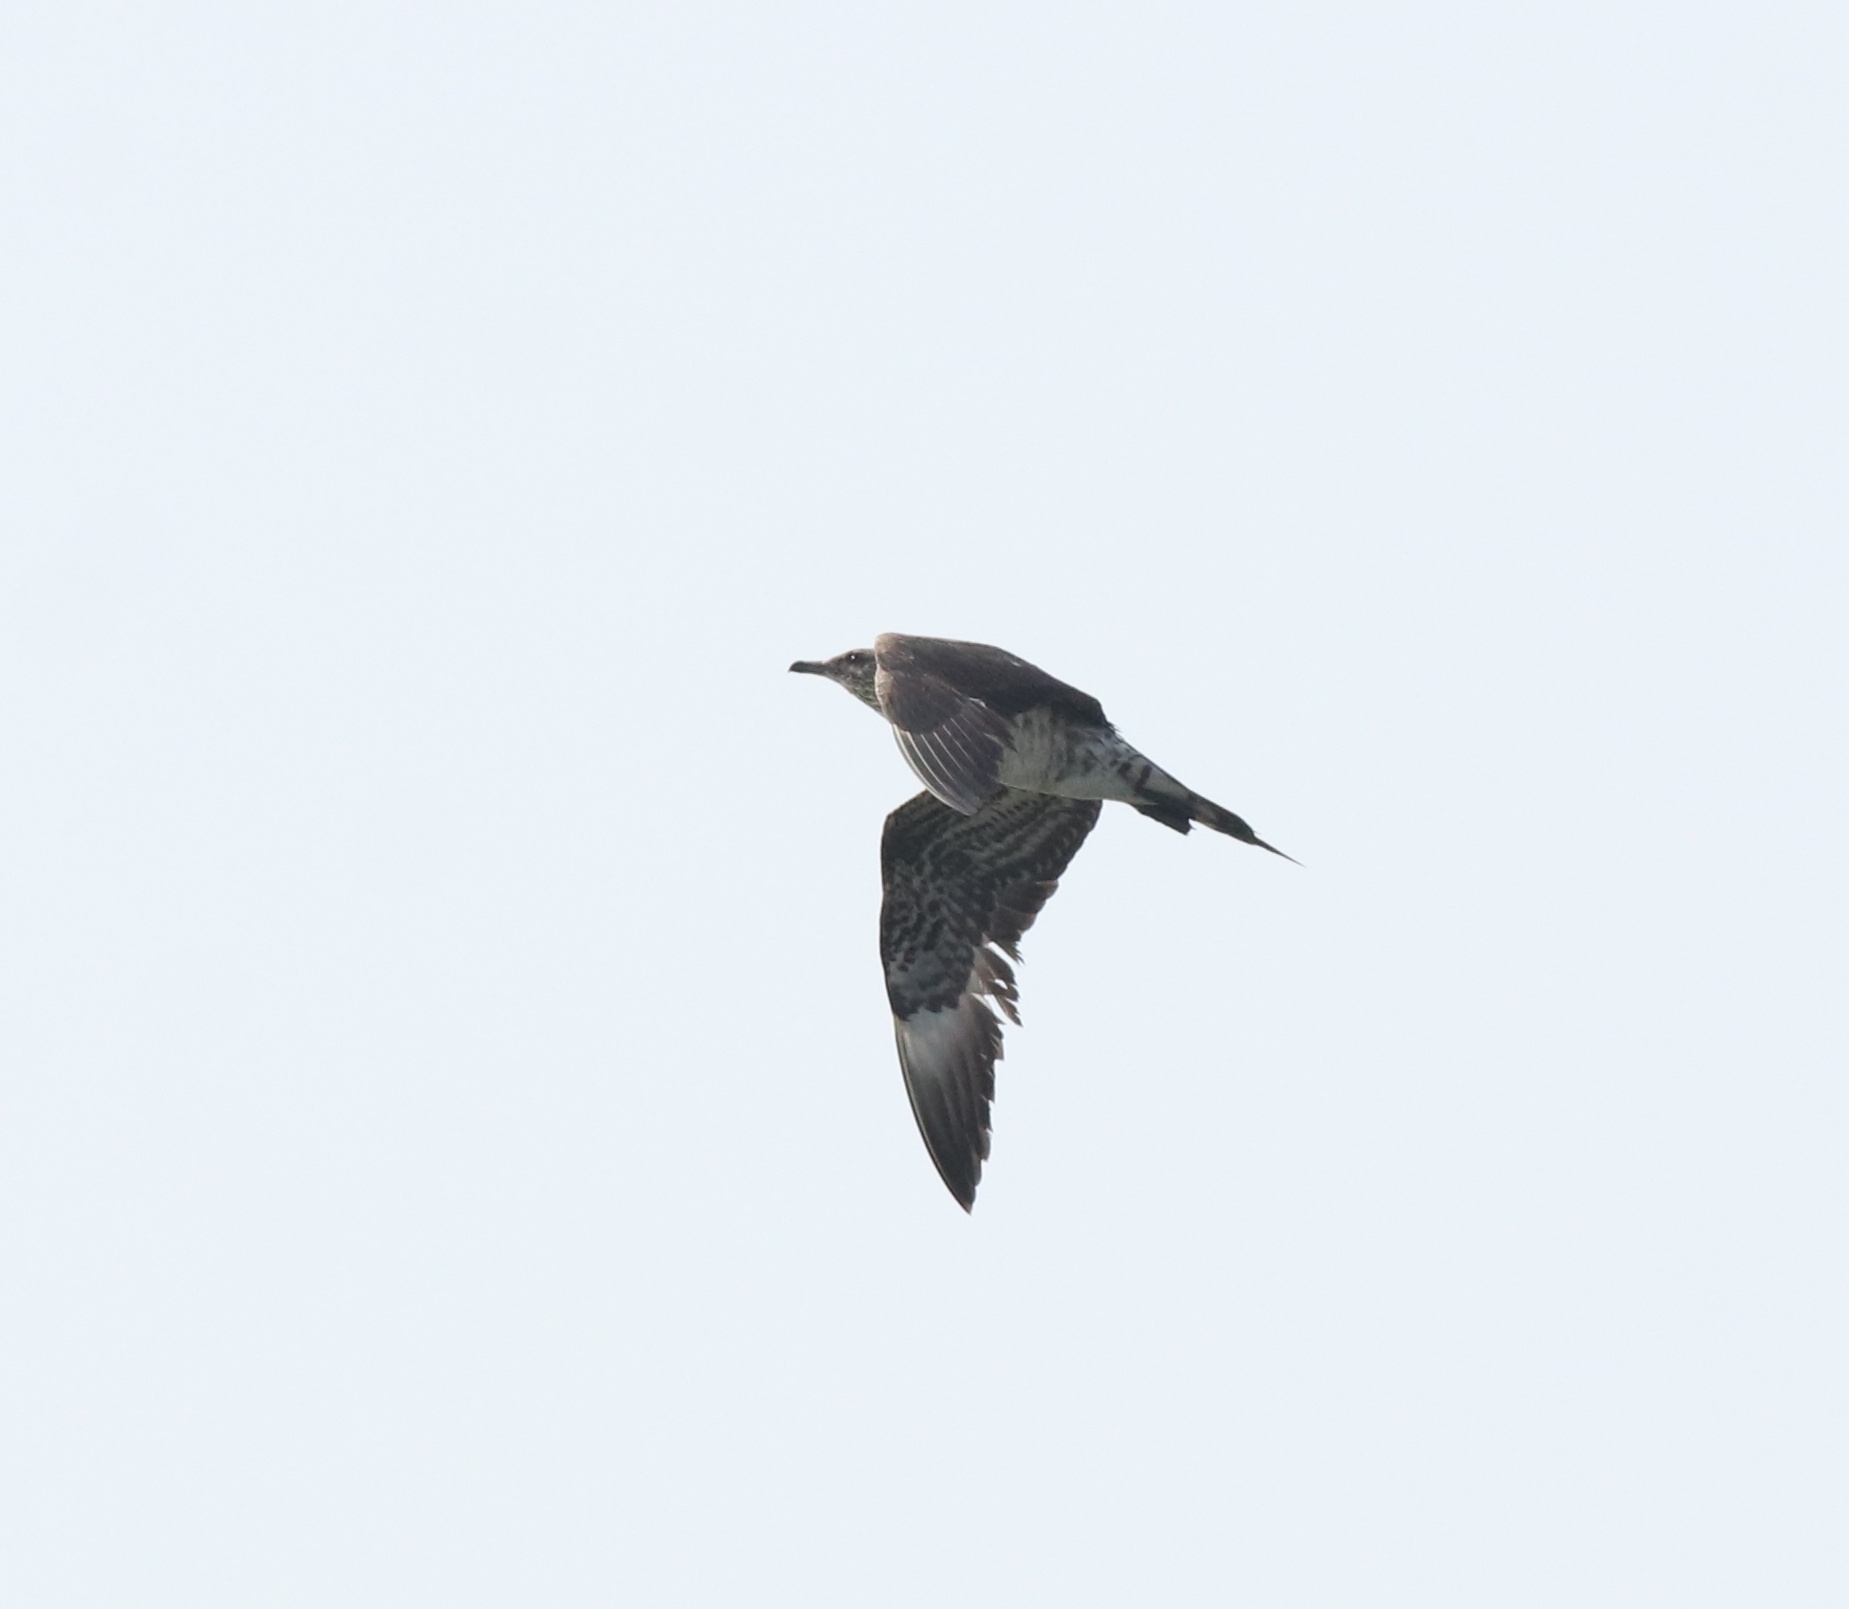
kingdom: Animalia
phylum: Chordata
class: Aves
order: Charadriiformes
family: Stercorariidae
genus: Stercorarius
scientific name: Stercorarius parasiticus
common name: Parasitic jaeger
